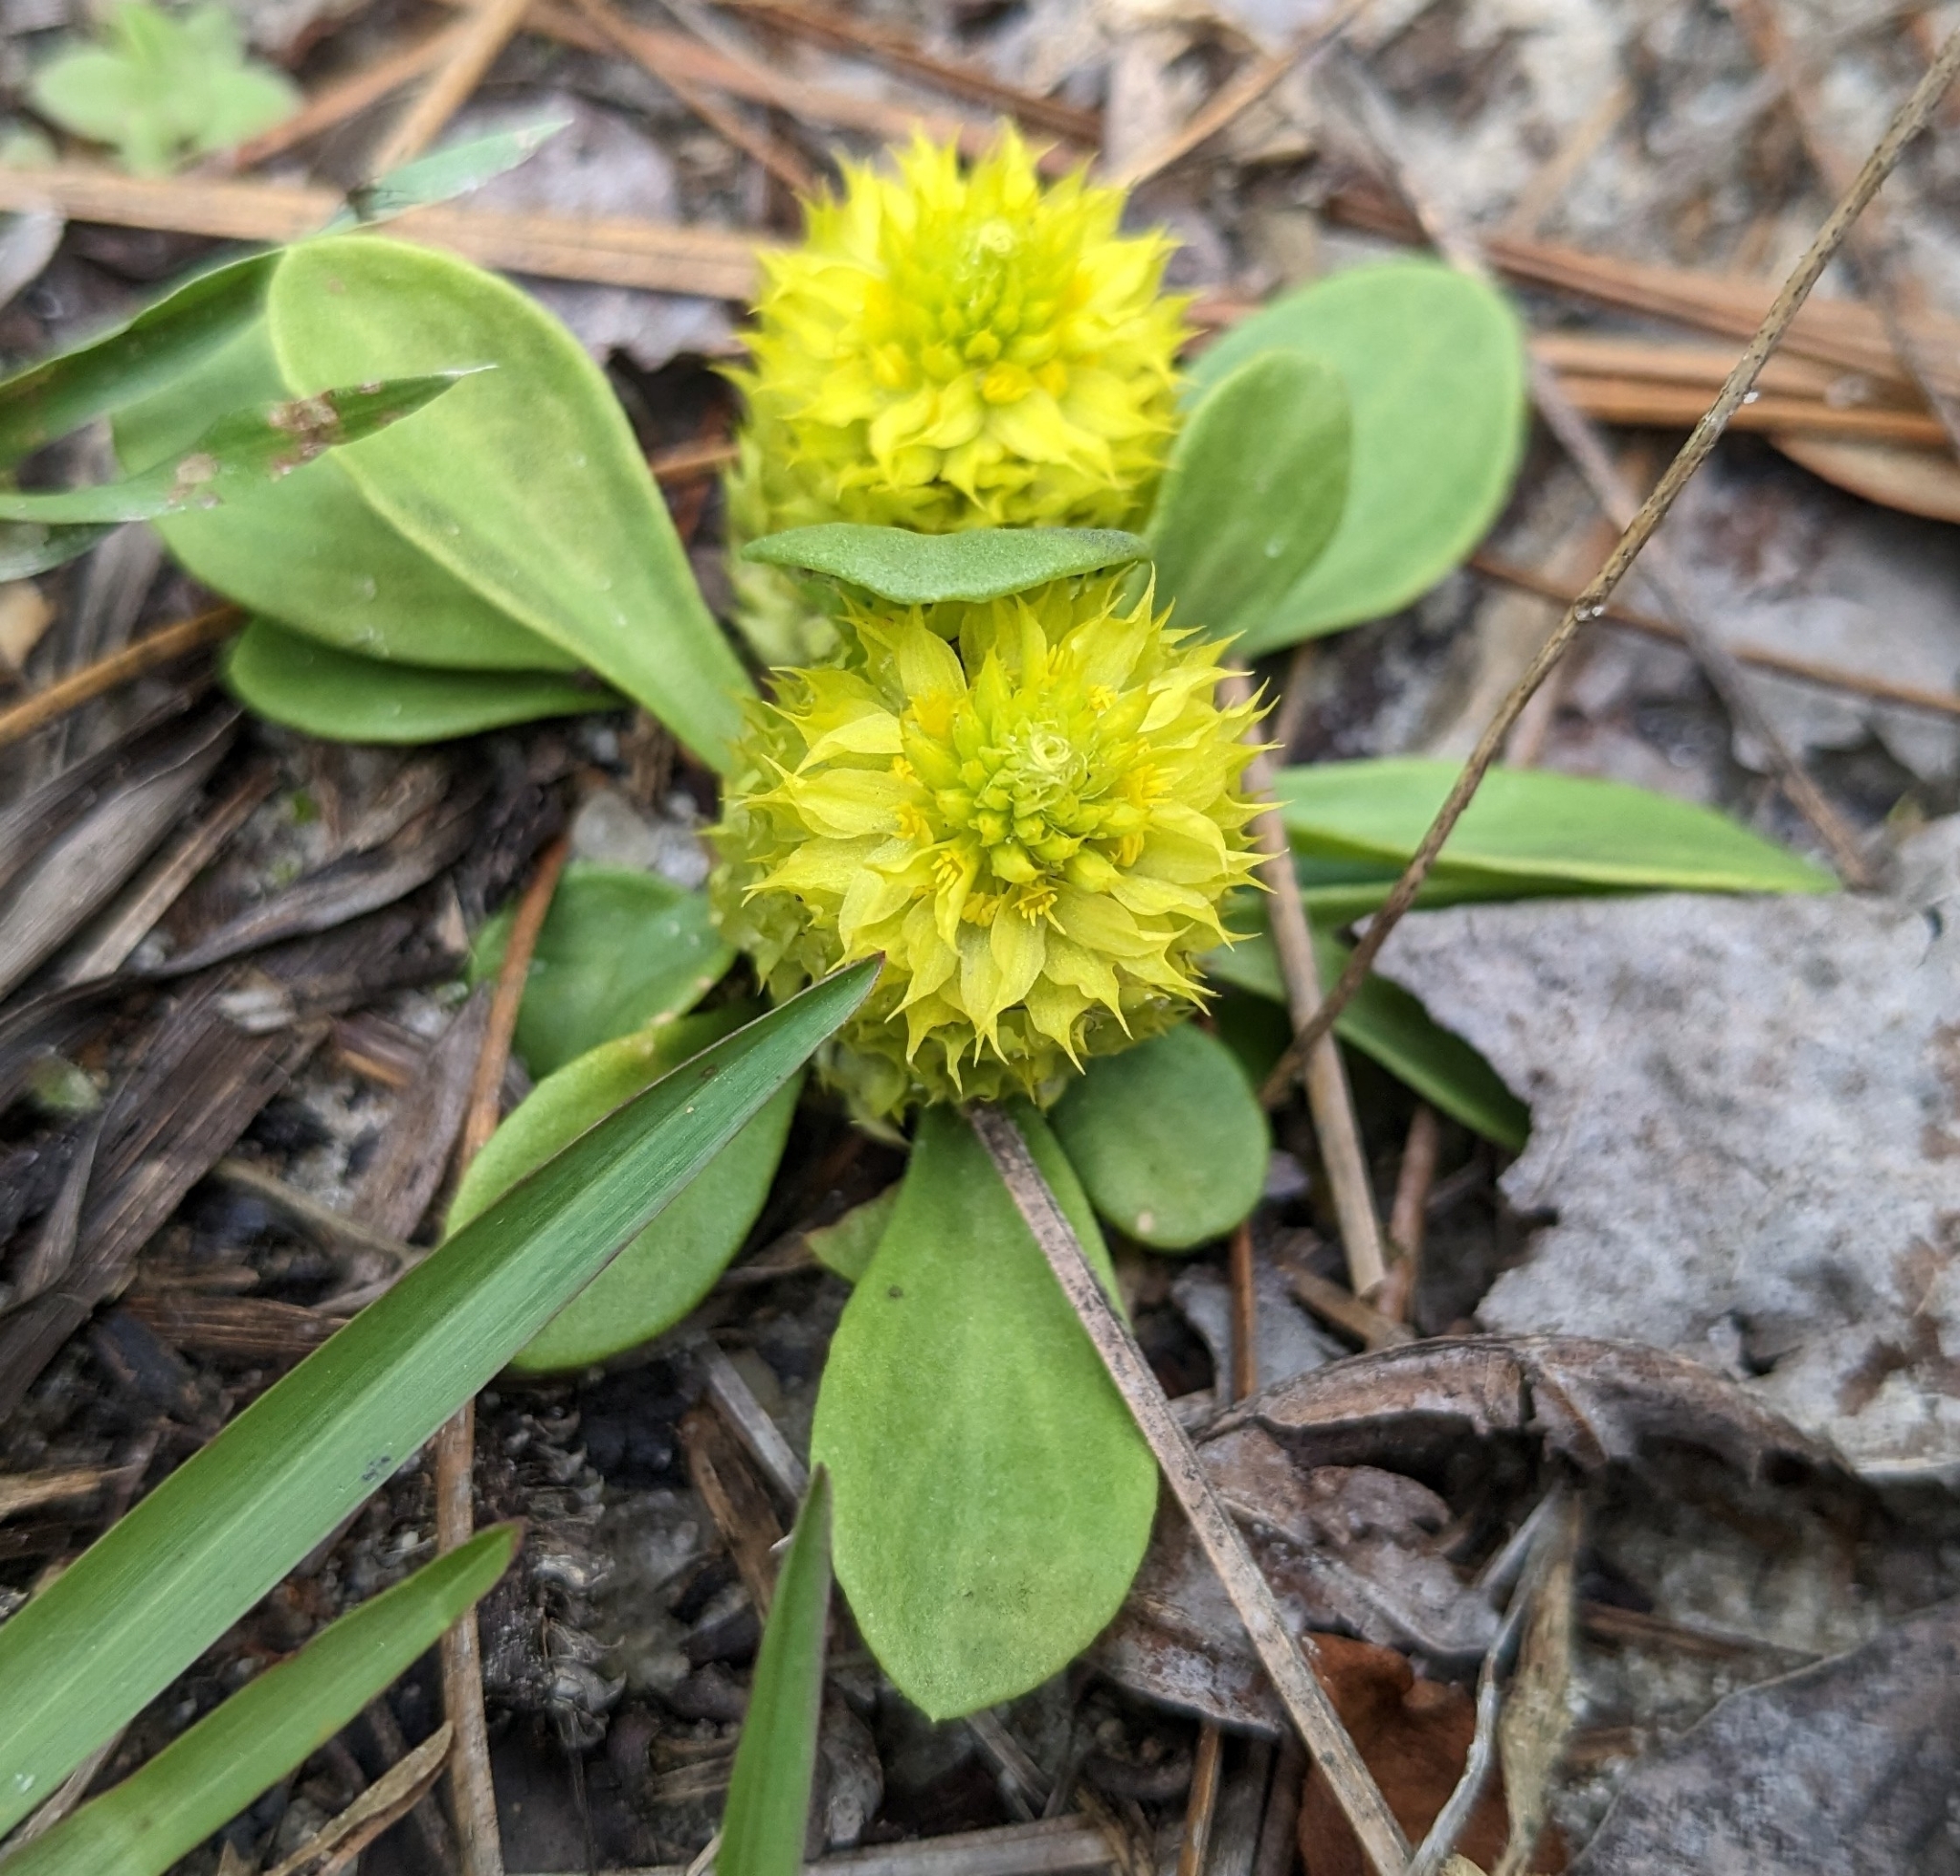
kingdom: Plantae
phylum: Tracheophyta
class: Magnoliopsida
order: Fabales
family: Polygalaceae
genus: Polygala
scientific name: Polygala nana
